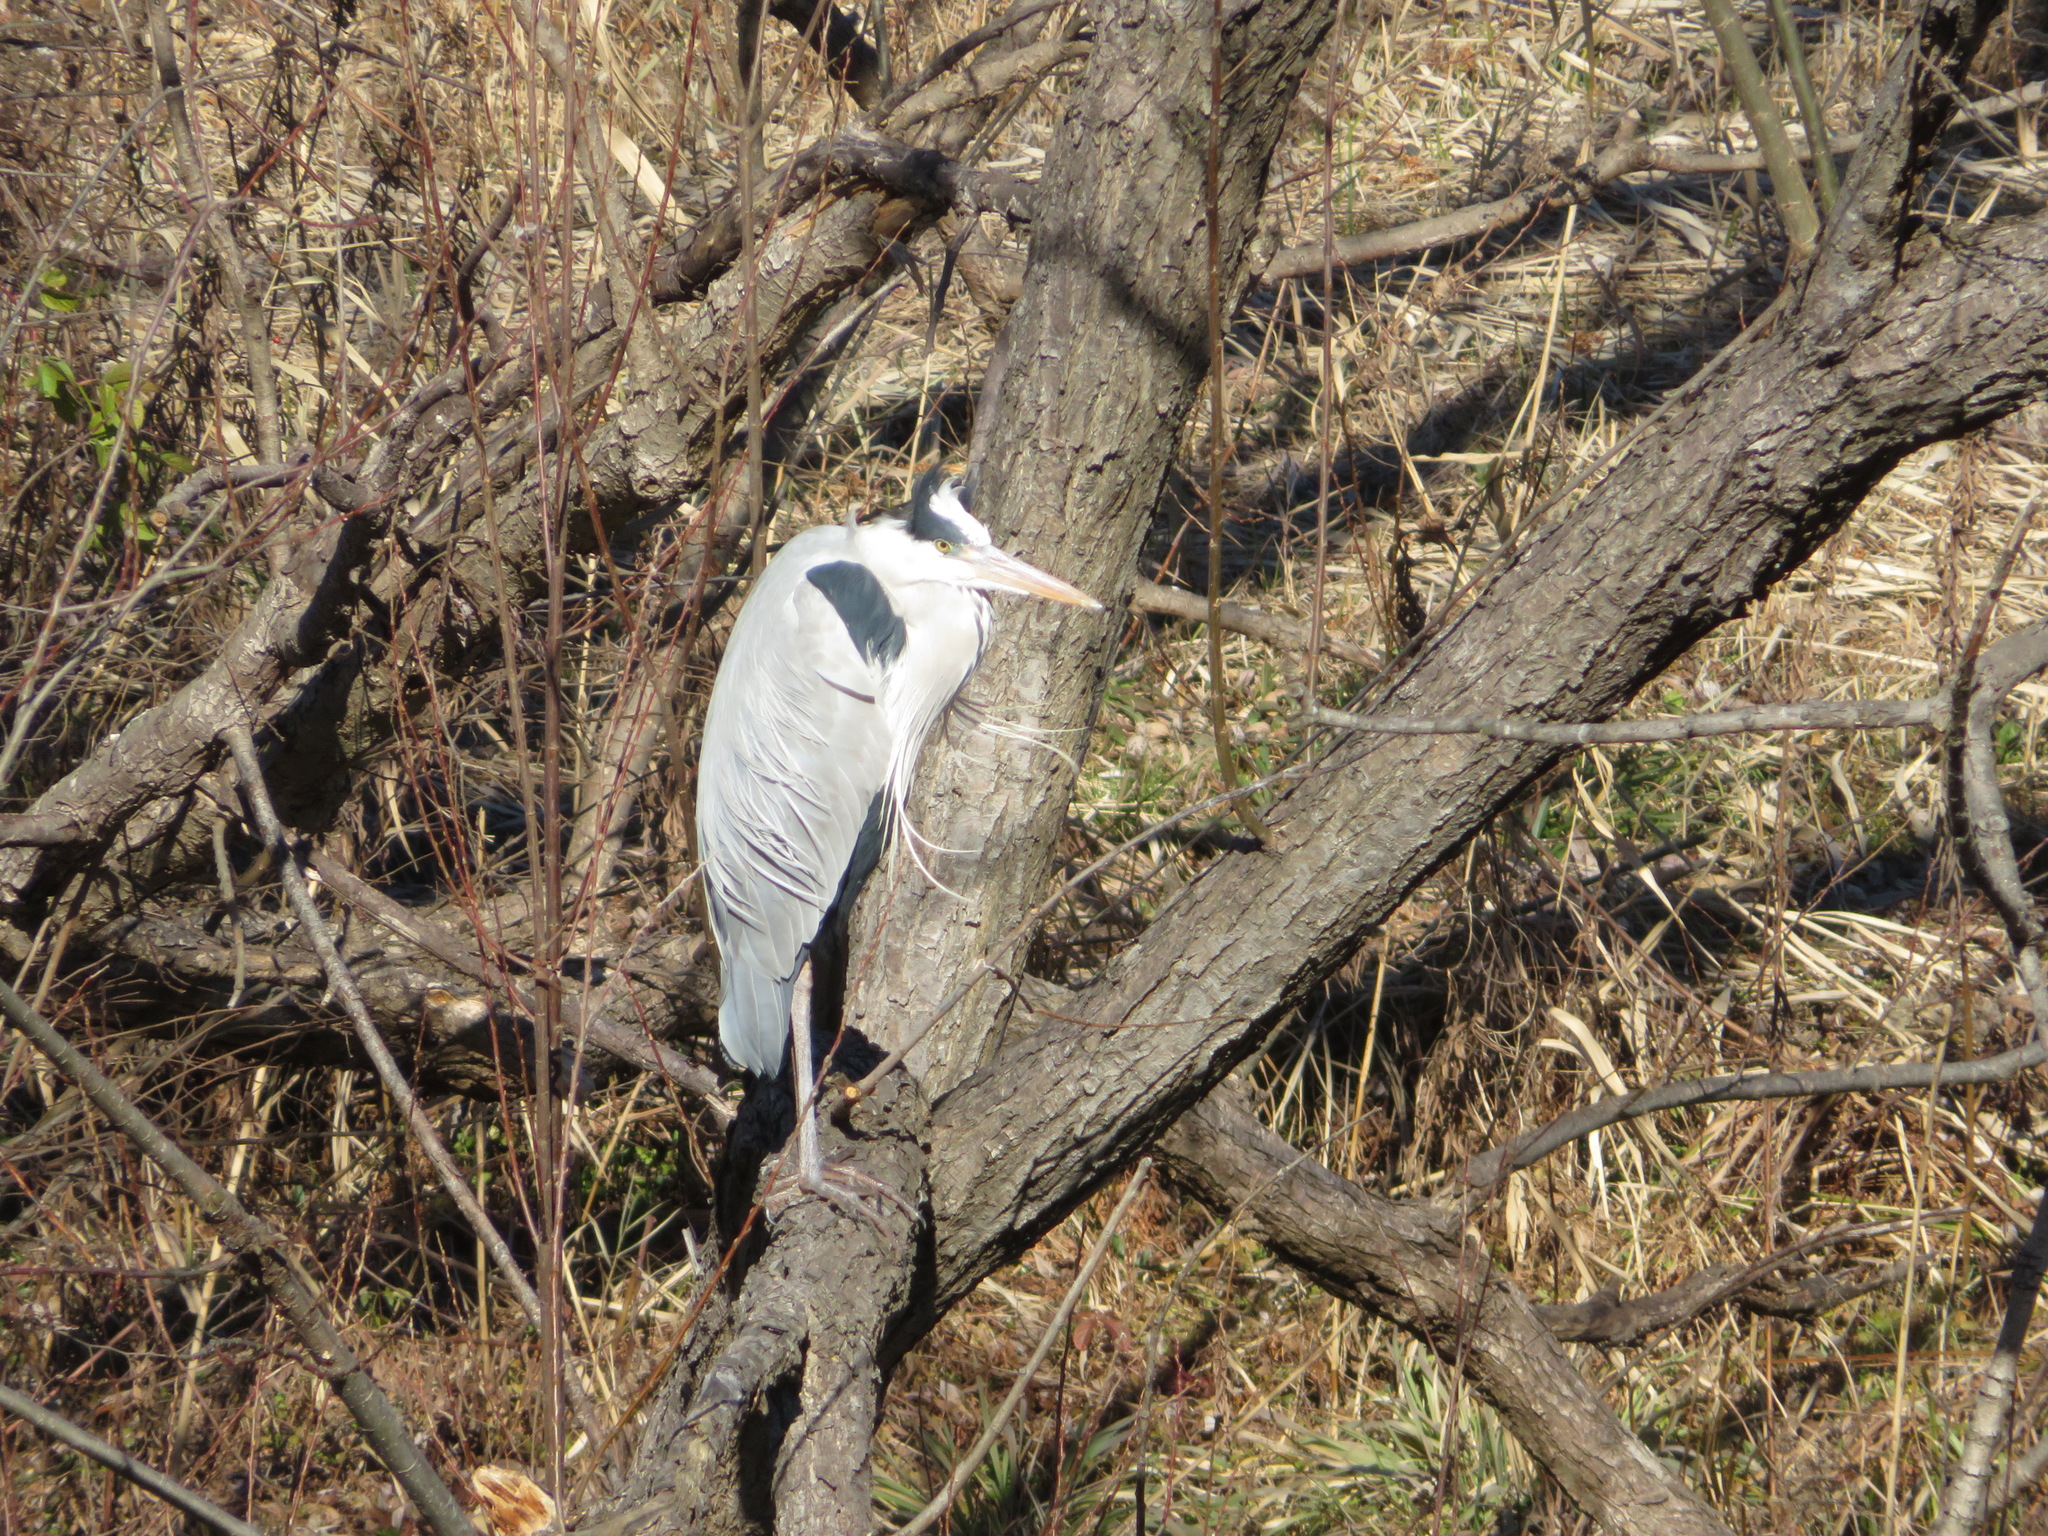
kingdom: Animalia
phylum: Chordata
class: Aves
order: Pelecaniformes
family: Ardeidae
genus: Ardea
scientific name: Ardea cinerea
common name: Grey heron
